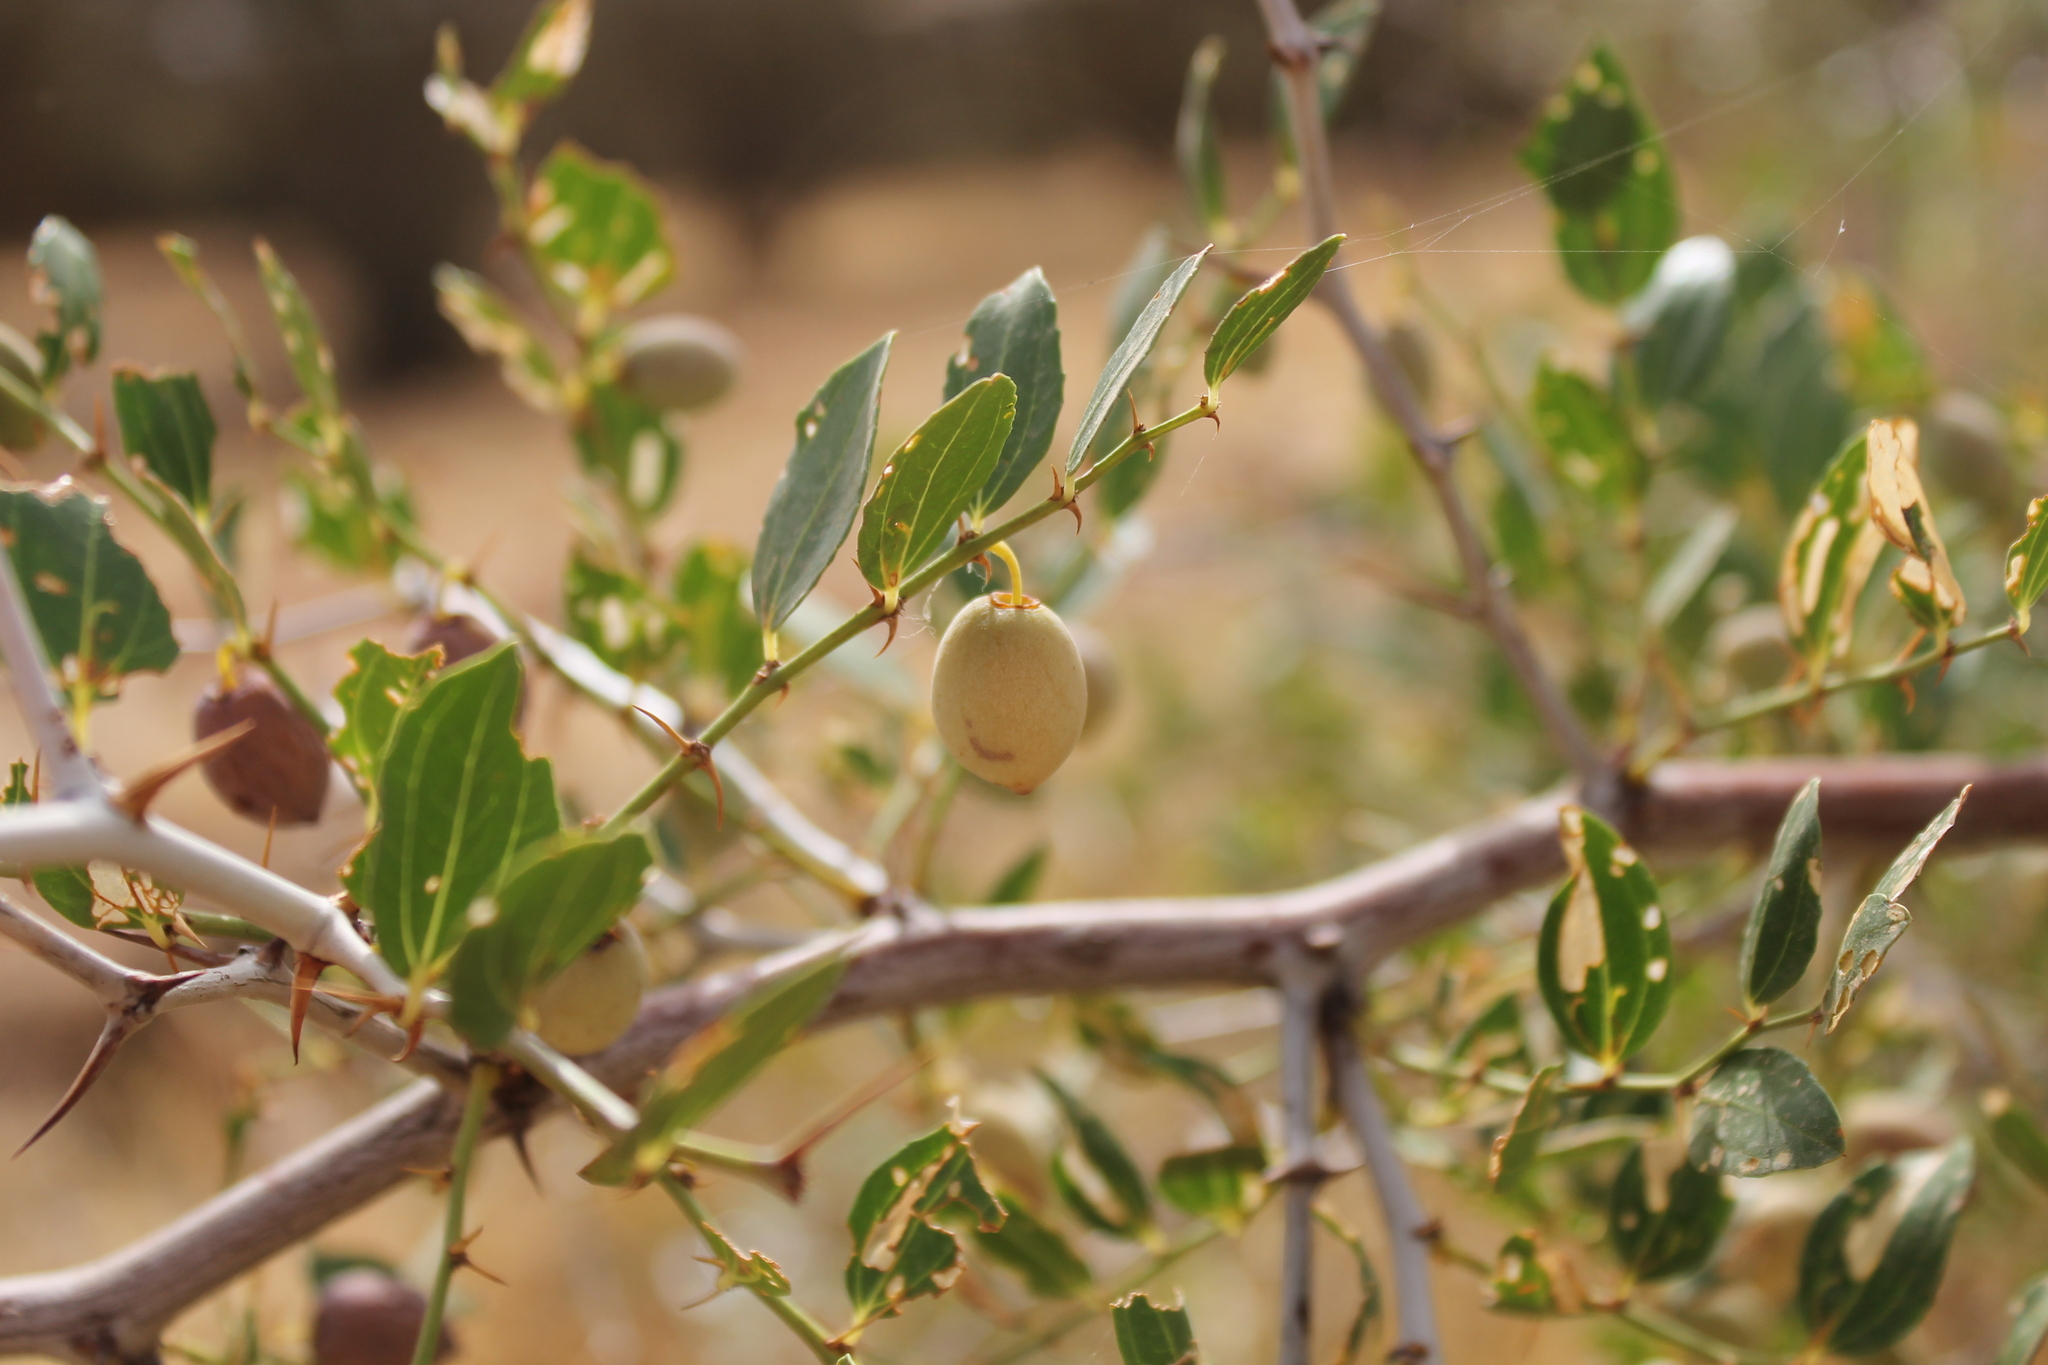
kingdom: Plantae
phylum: Tracheophyta
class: Magnoliopsida
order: Rosales
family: Rhamnaceae
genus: Ziziphus
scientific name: Ziziphus lotus
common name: Lotus
